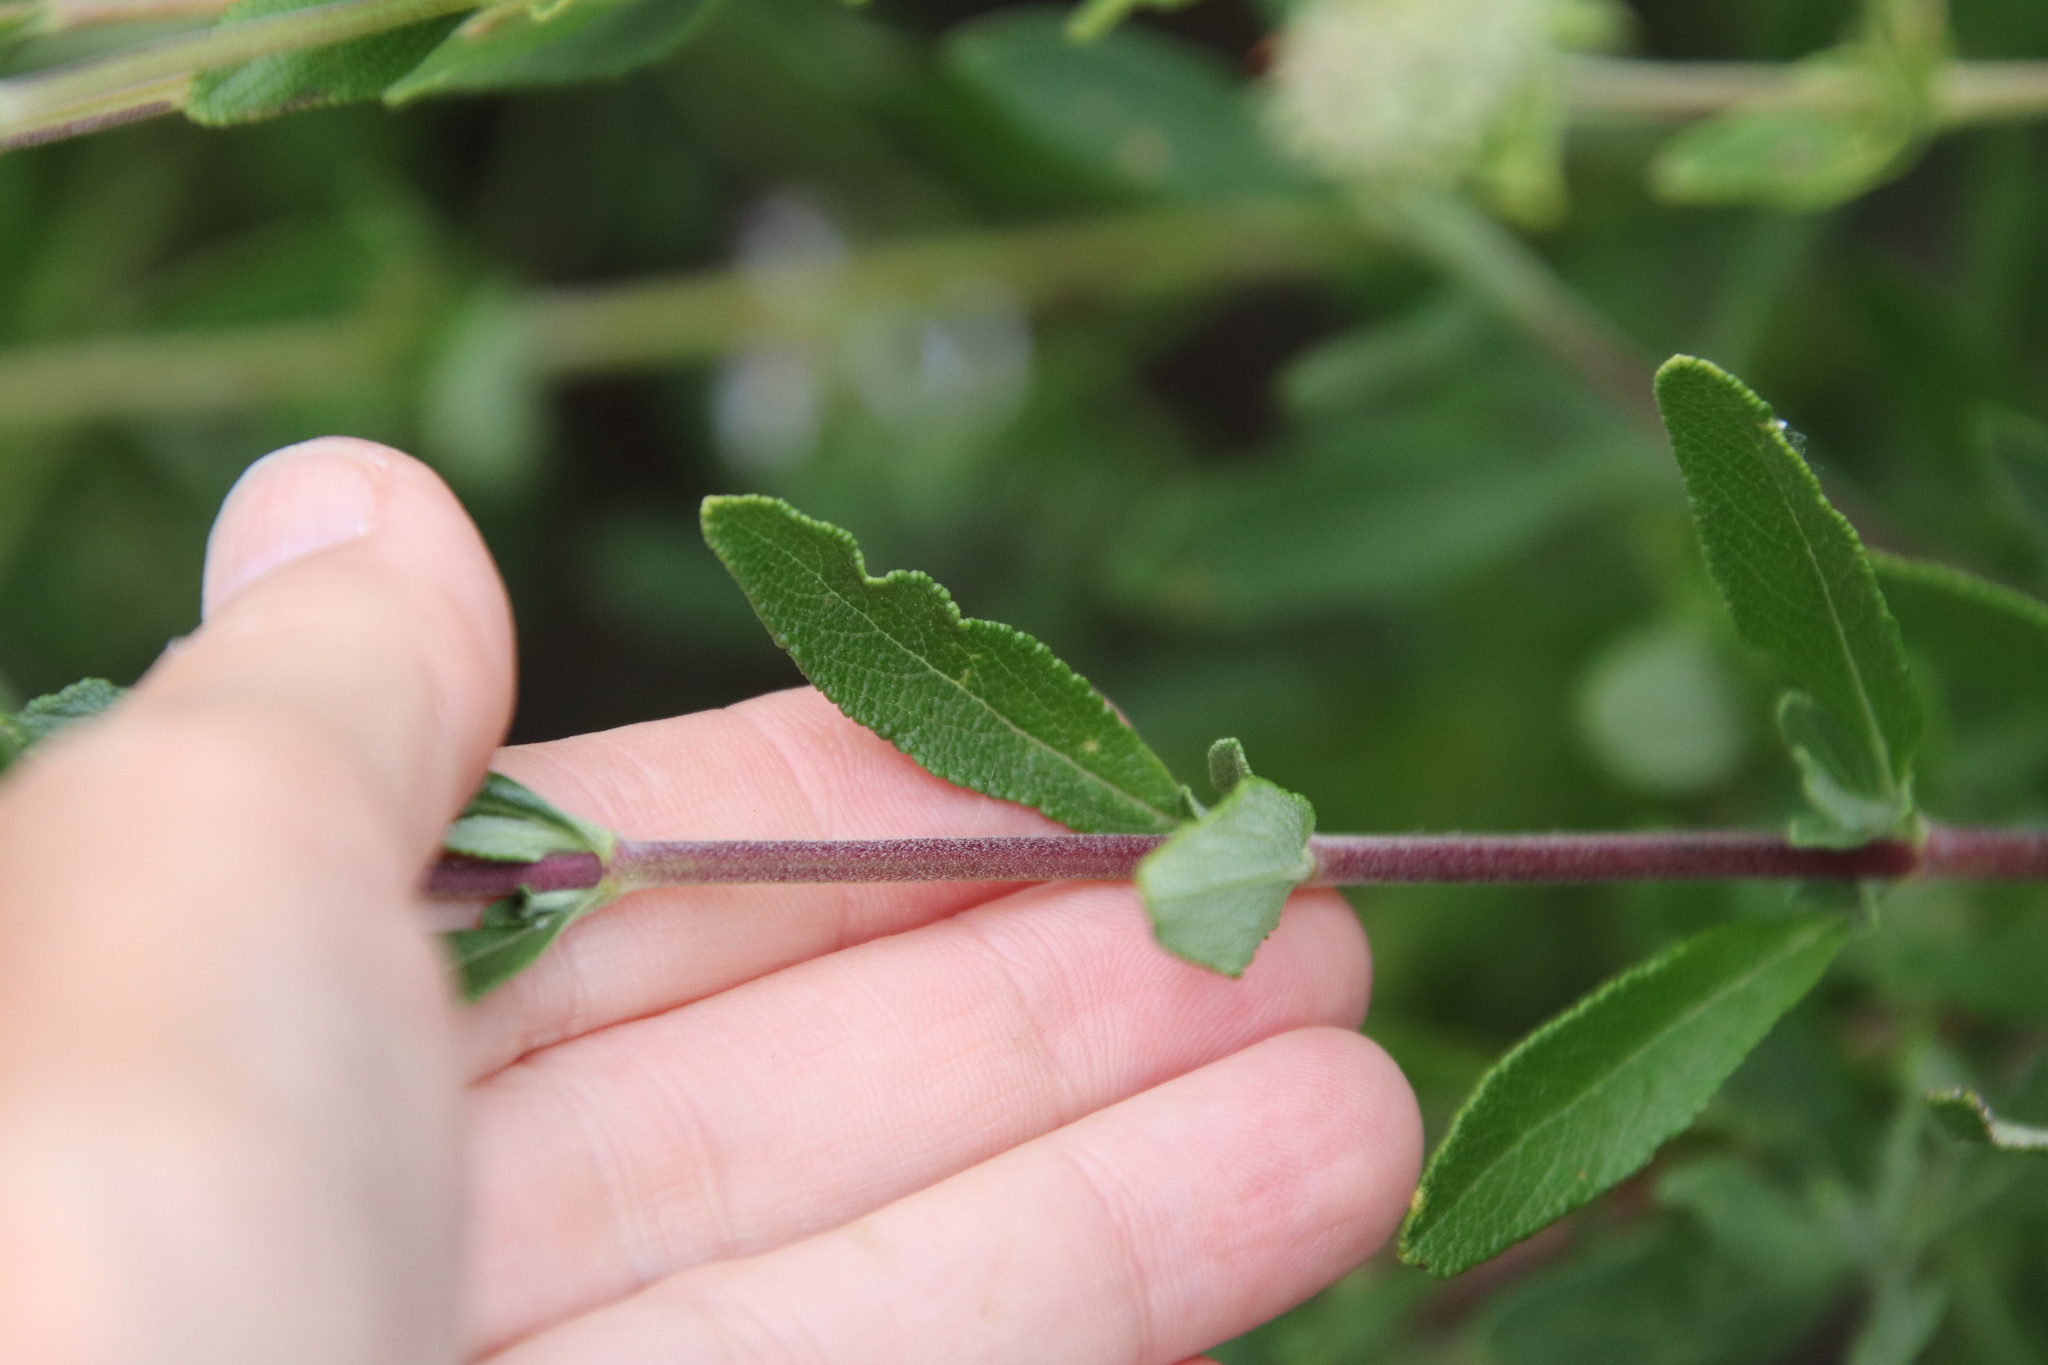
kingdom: Plantae
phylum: Tracheophyta
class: Magnoliopsida
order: Lamiales
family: Lamiaceae
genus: Salvia
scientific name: Salvia mellifera
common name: Black sage
